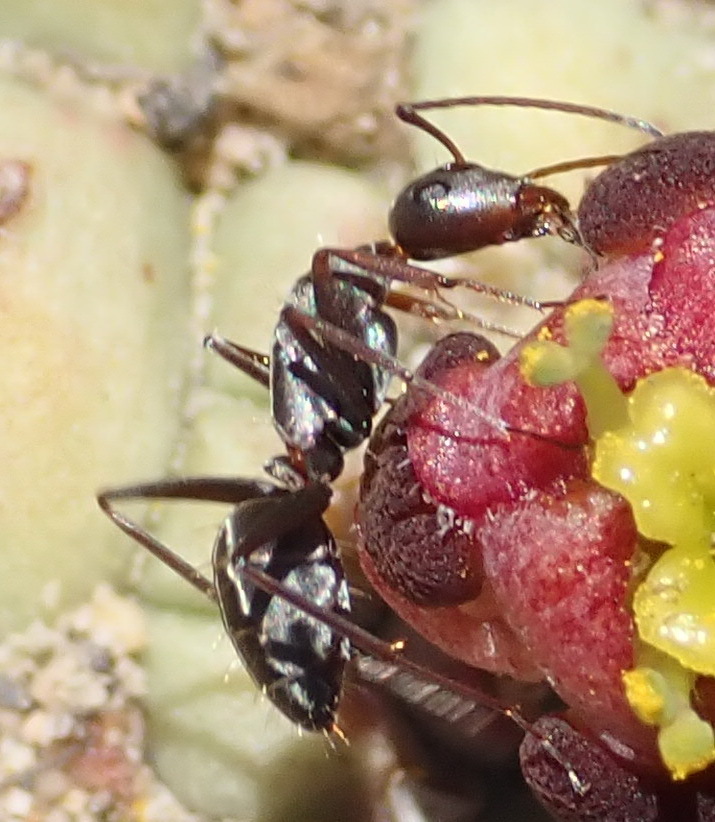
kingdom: Animalia
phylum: Arthropoda
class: Insecta
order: Hymenoptera
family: Formicidae
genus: Camponotus
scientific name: Camponotus vestitus
